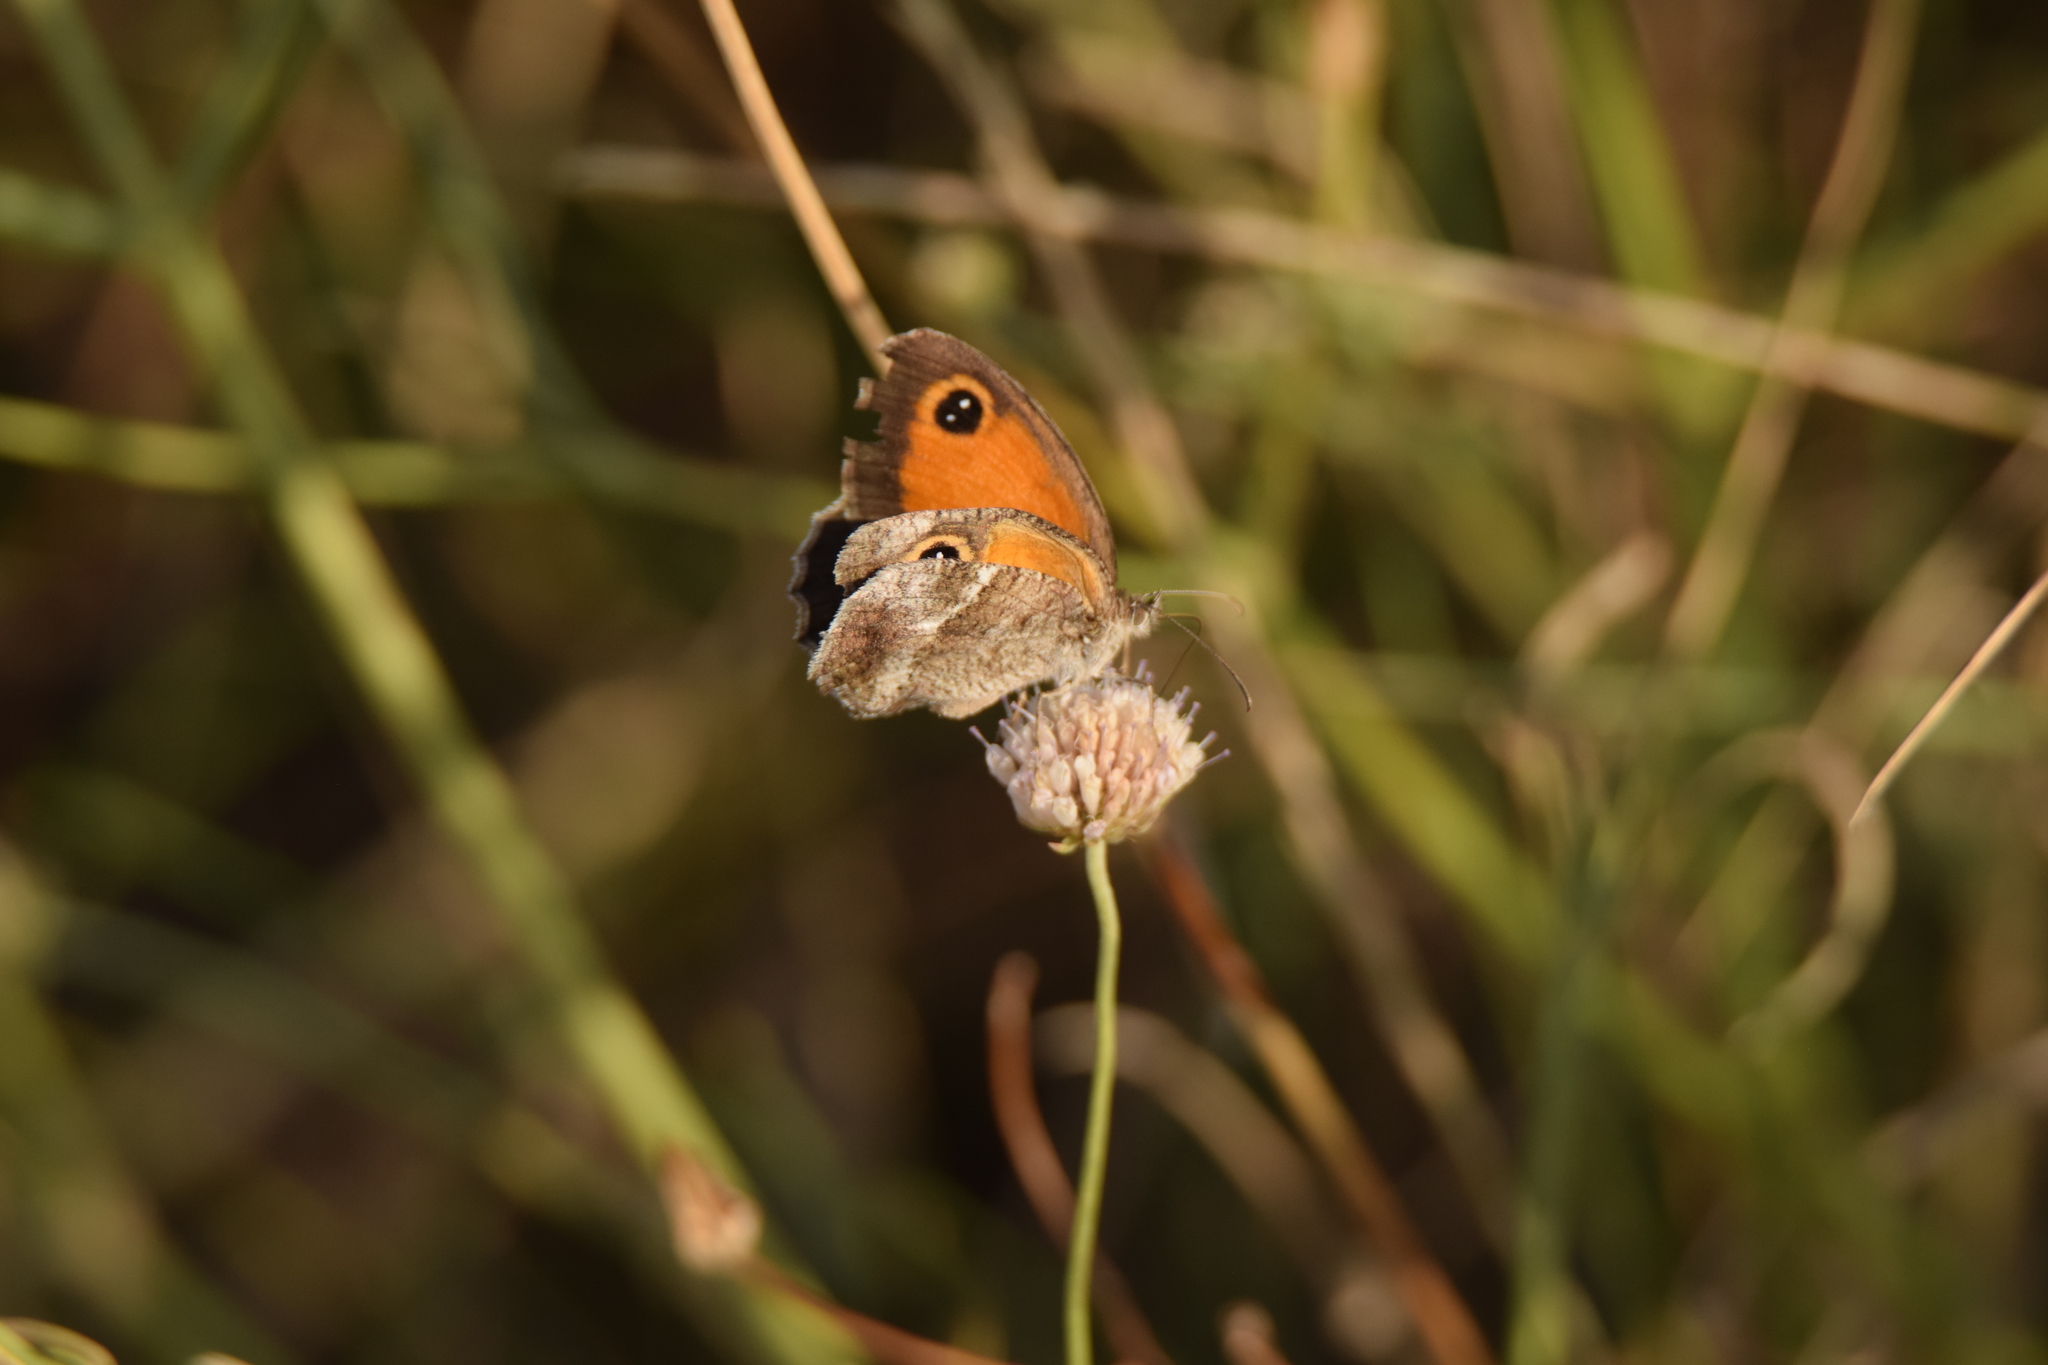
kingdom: Animalia
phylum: Arthropoda
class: Insecta
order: Lepidoptera
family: Nymphalidae
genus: Pyronia
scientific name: Pyronia cecilia
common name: Southern gatekeeper
